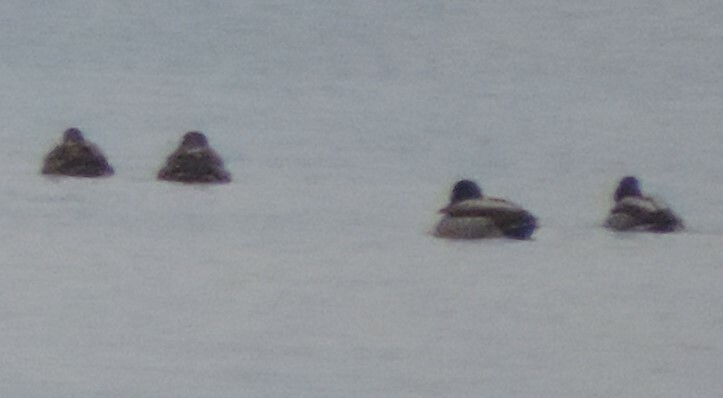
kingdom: Animalia
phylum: Chordata
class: Aves
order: Anseriformes
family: Anatidae
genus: Anas
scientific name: Anas platyrhynchos
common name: Mallard
